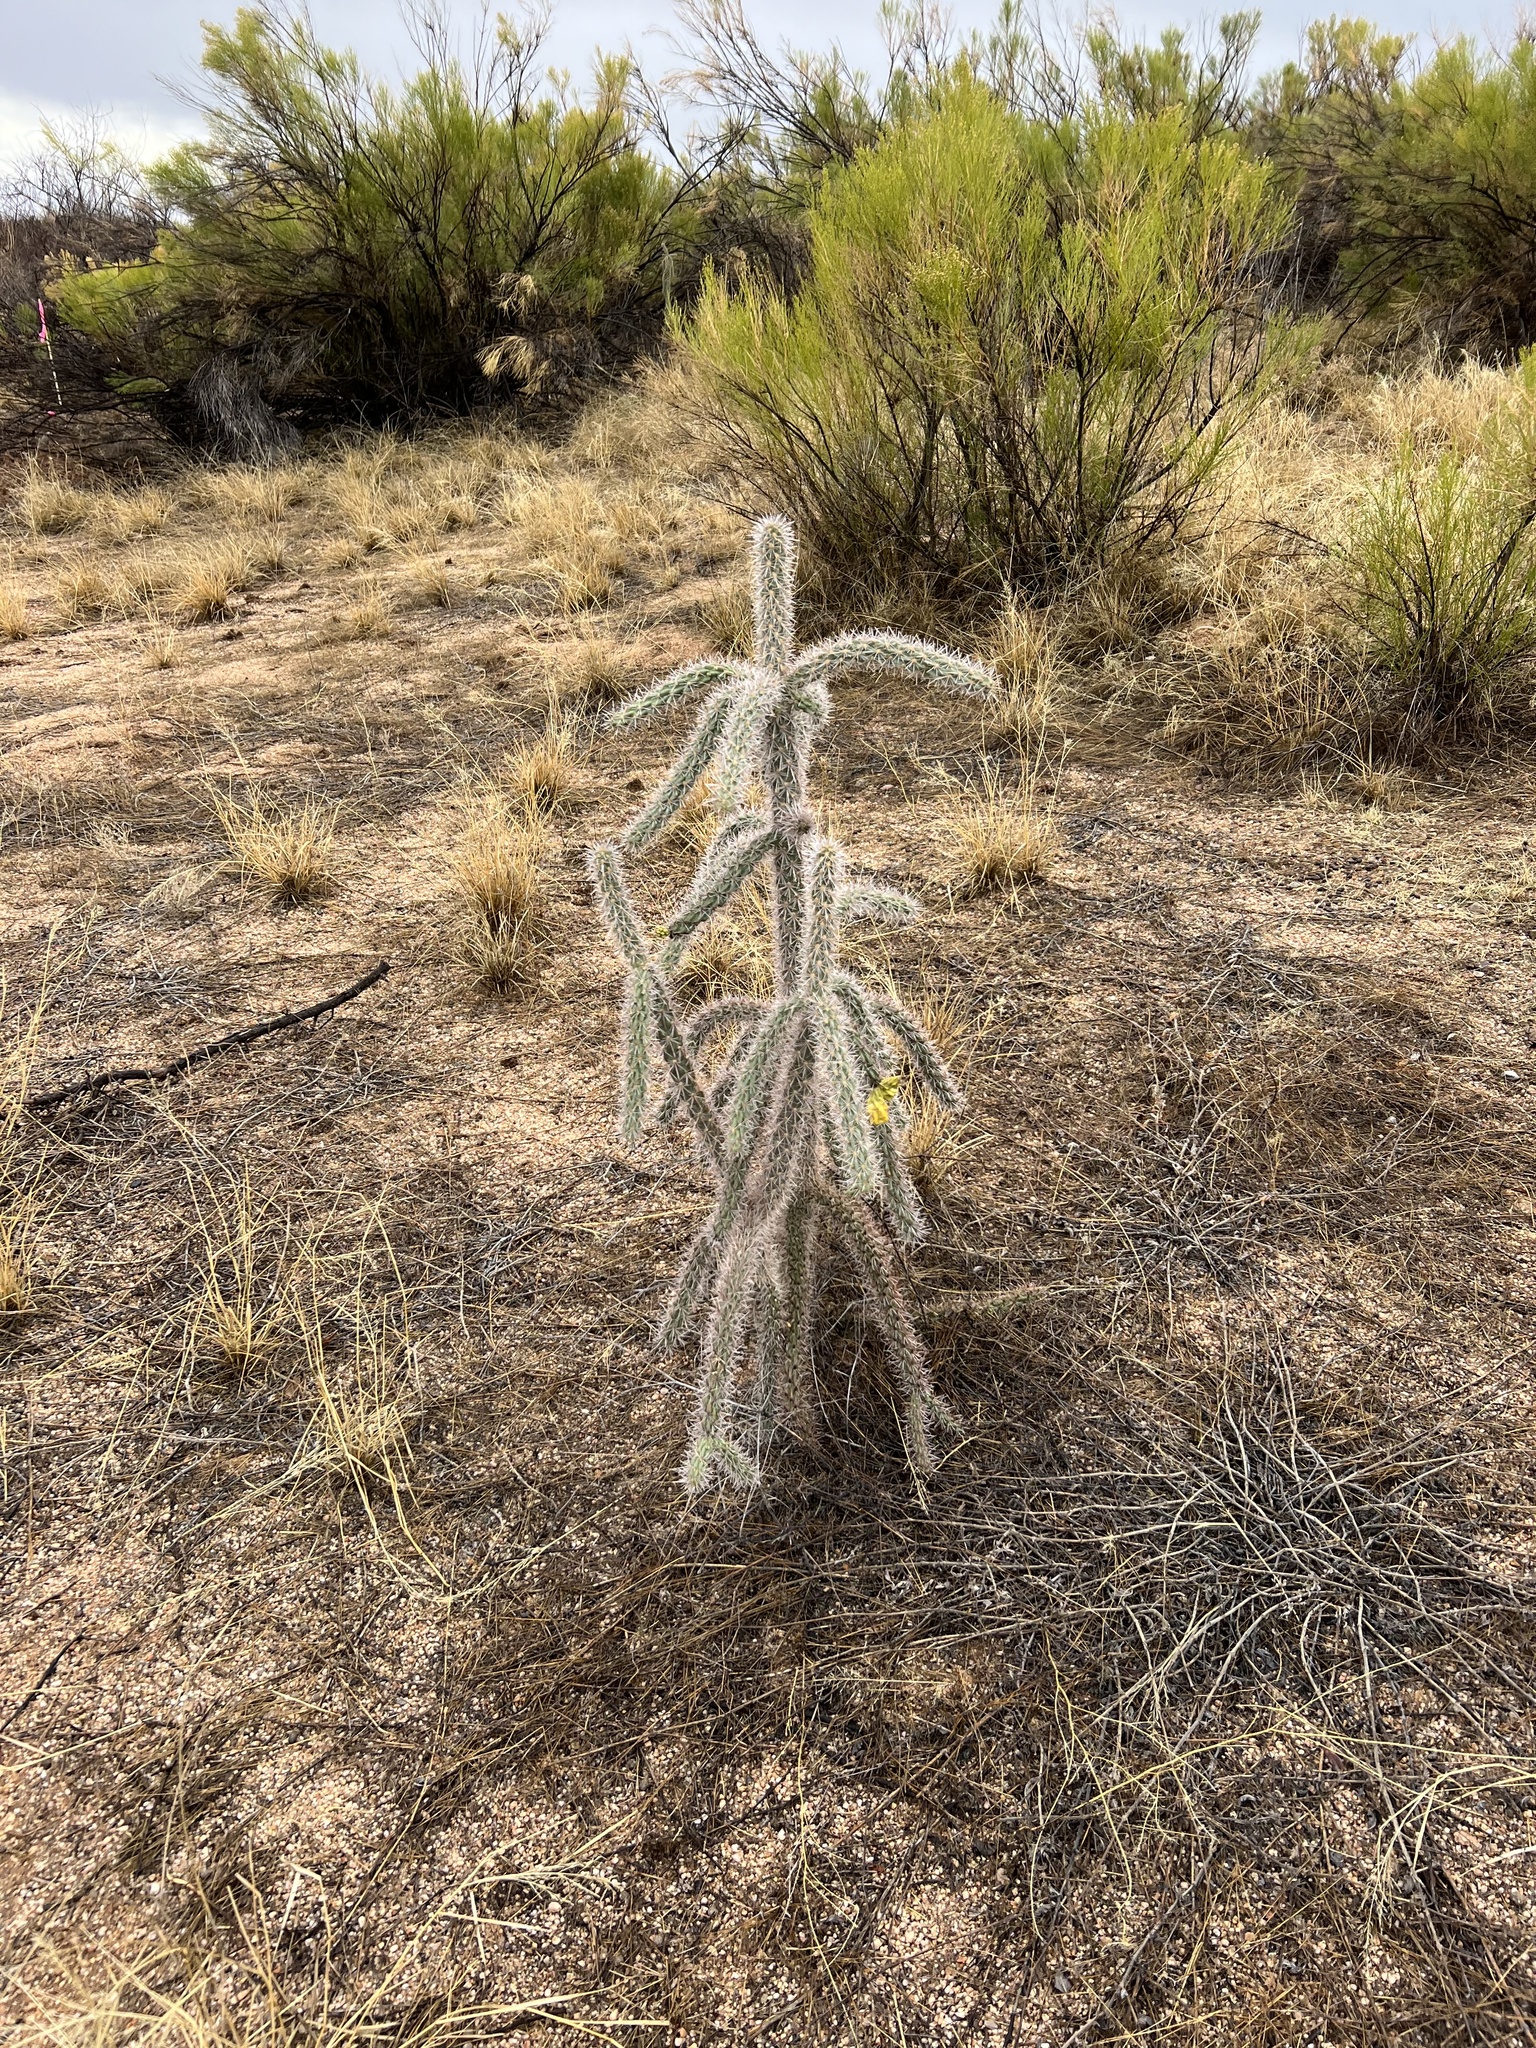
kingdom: Plantae
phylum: Tracheophyta
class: Magnoliopsida
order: Caryophyllales
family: Cactaceae
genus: Cylindropuntia
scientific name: Cylindropuntia imbricata
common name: Candelabrum cactus
